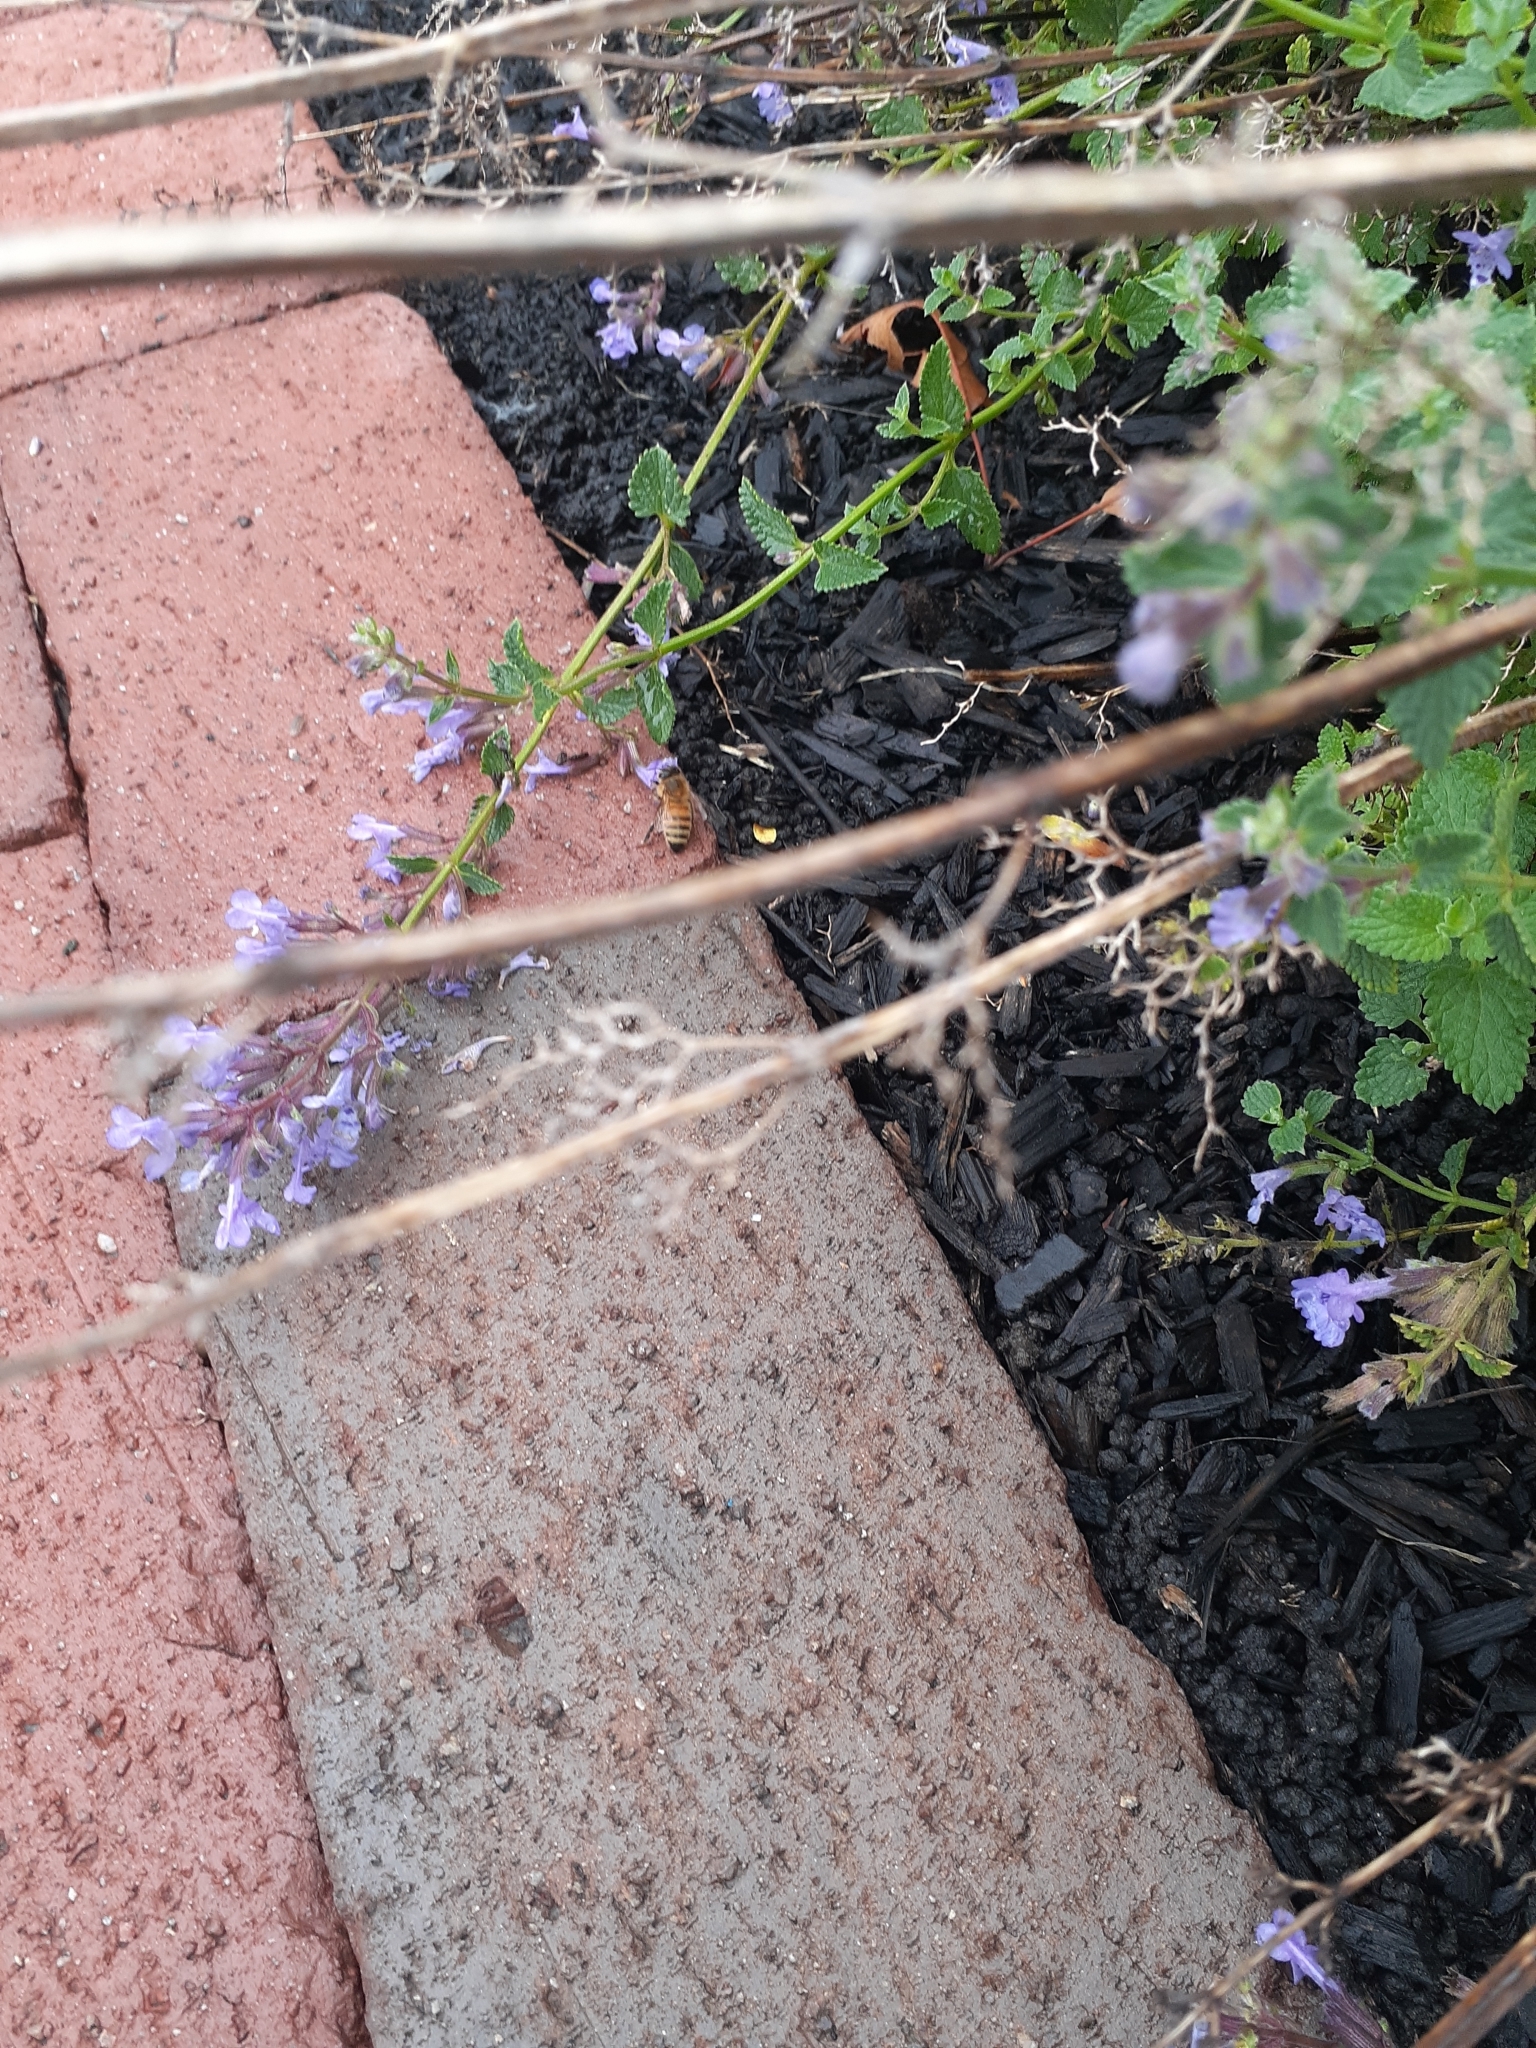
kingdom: Animalia
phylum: Arthropoda
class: Insecta
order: Hymenoptera
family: Apidae
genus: Apis
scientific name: Apis mellifera
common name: Honey bee
